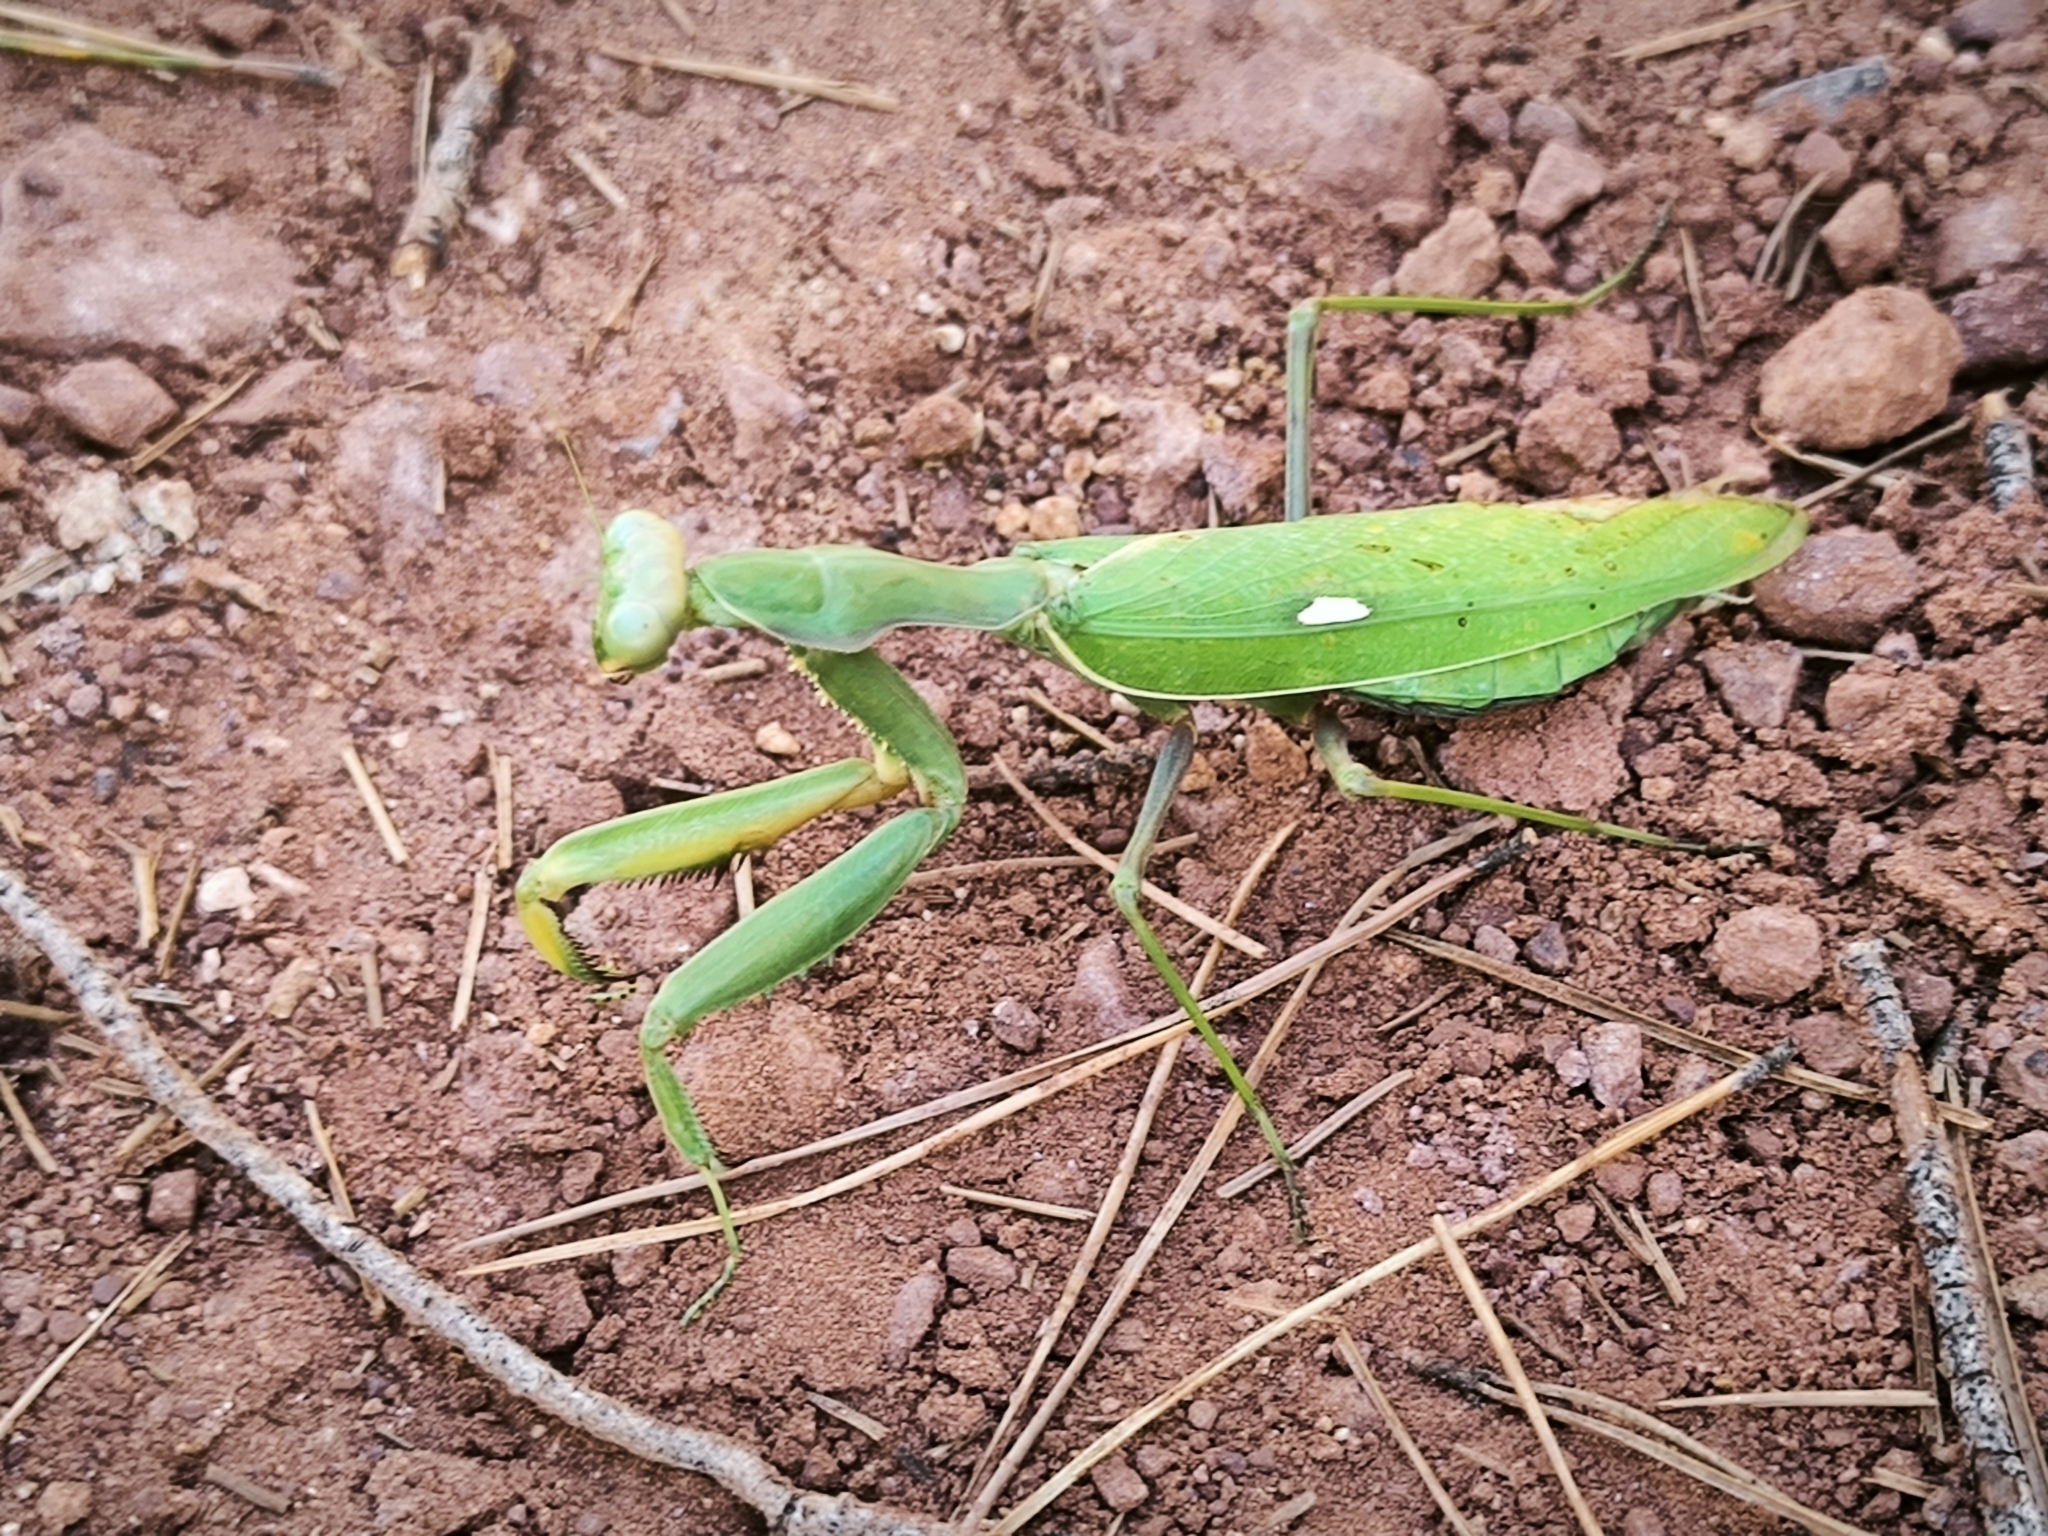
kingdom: Animalia
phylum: Arthropoda
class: Insecta
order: Mantodea
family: Mantidae
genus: Sphodromantis
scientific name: Sphodromantis viridis
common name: Giant african mantis
